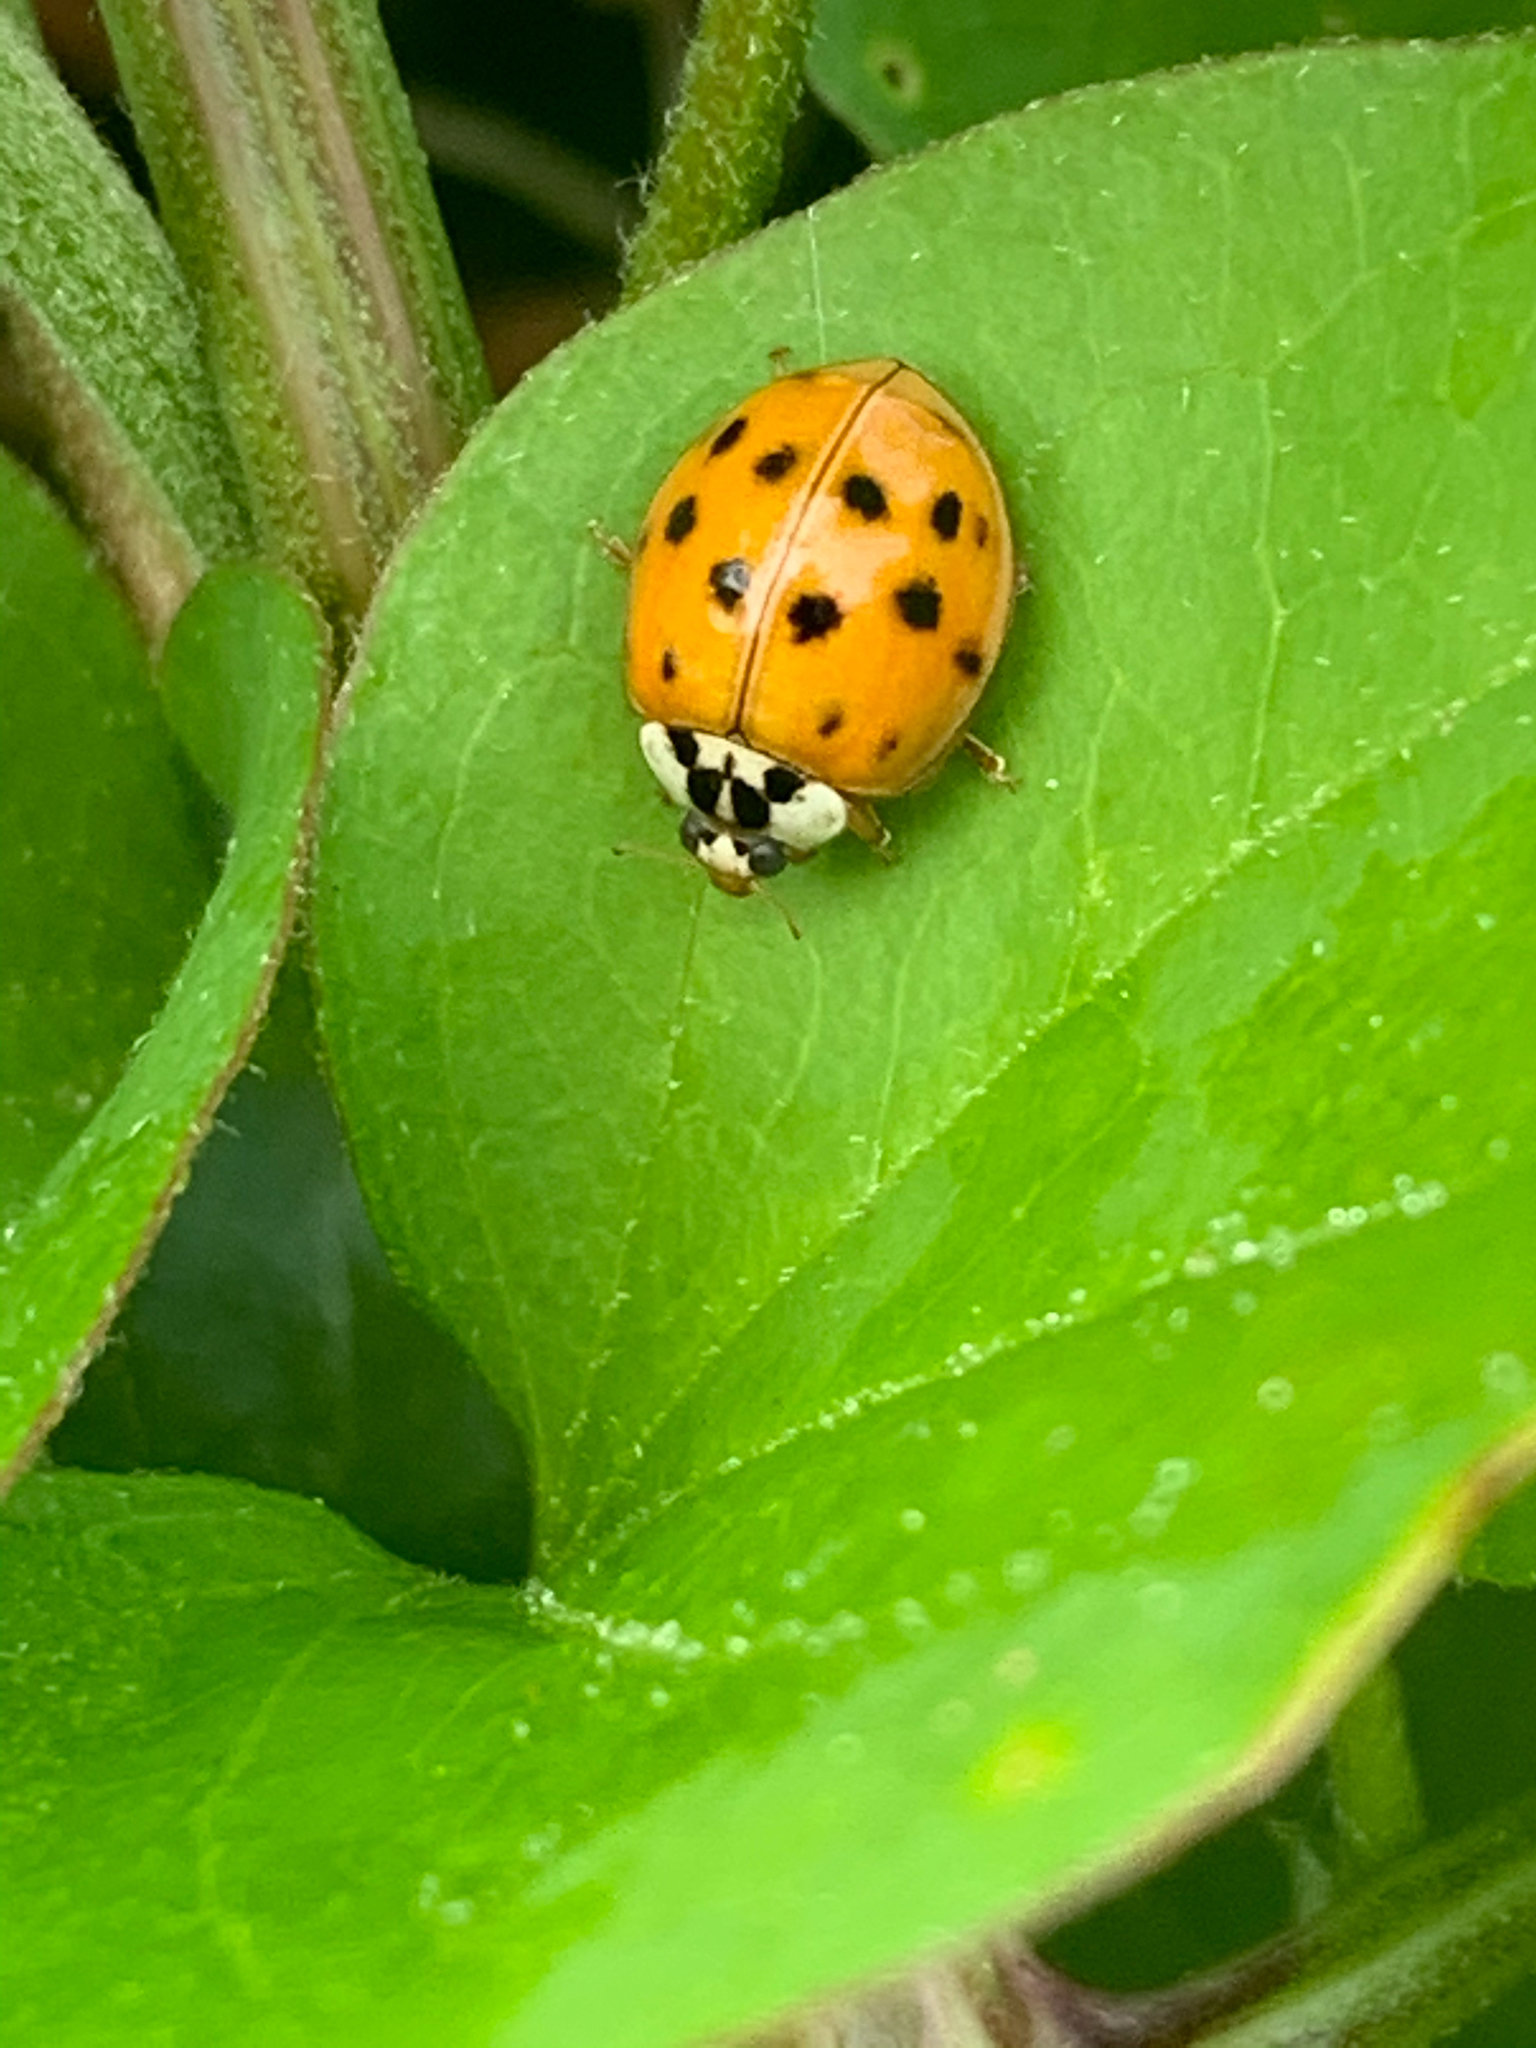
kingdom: Animalia
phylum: Arthropoda
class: Insecta
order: Coleoptera
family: Coccinellidae
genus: Harmonia
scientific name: Harmonia axyridis
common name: Harlequin ladybird
